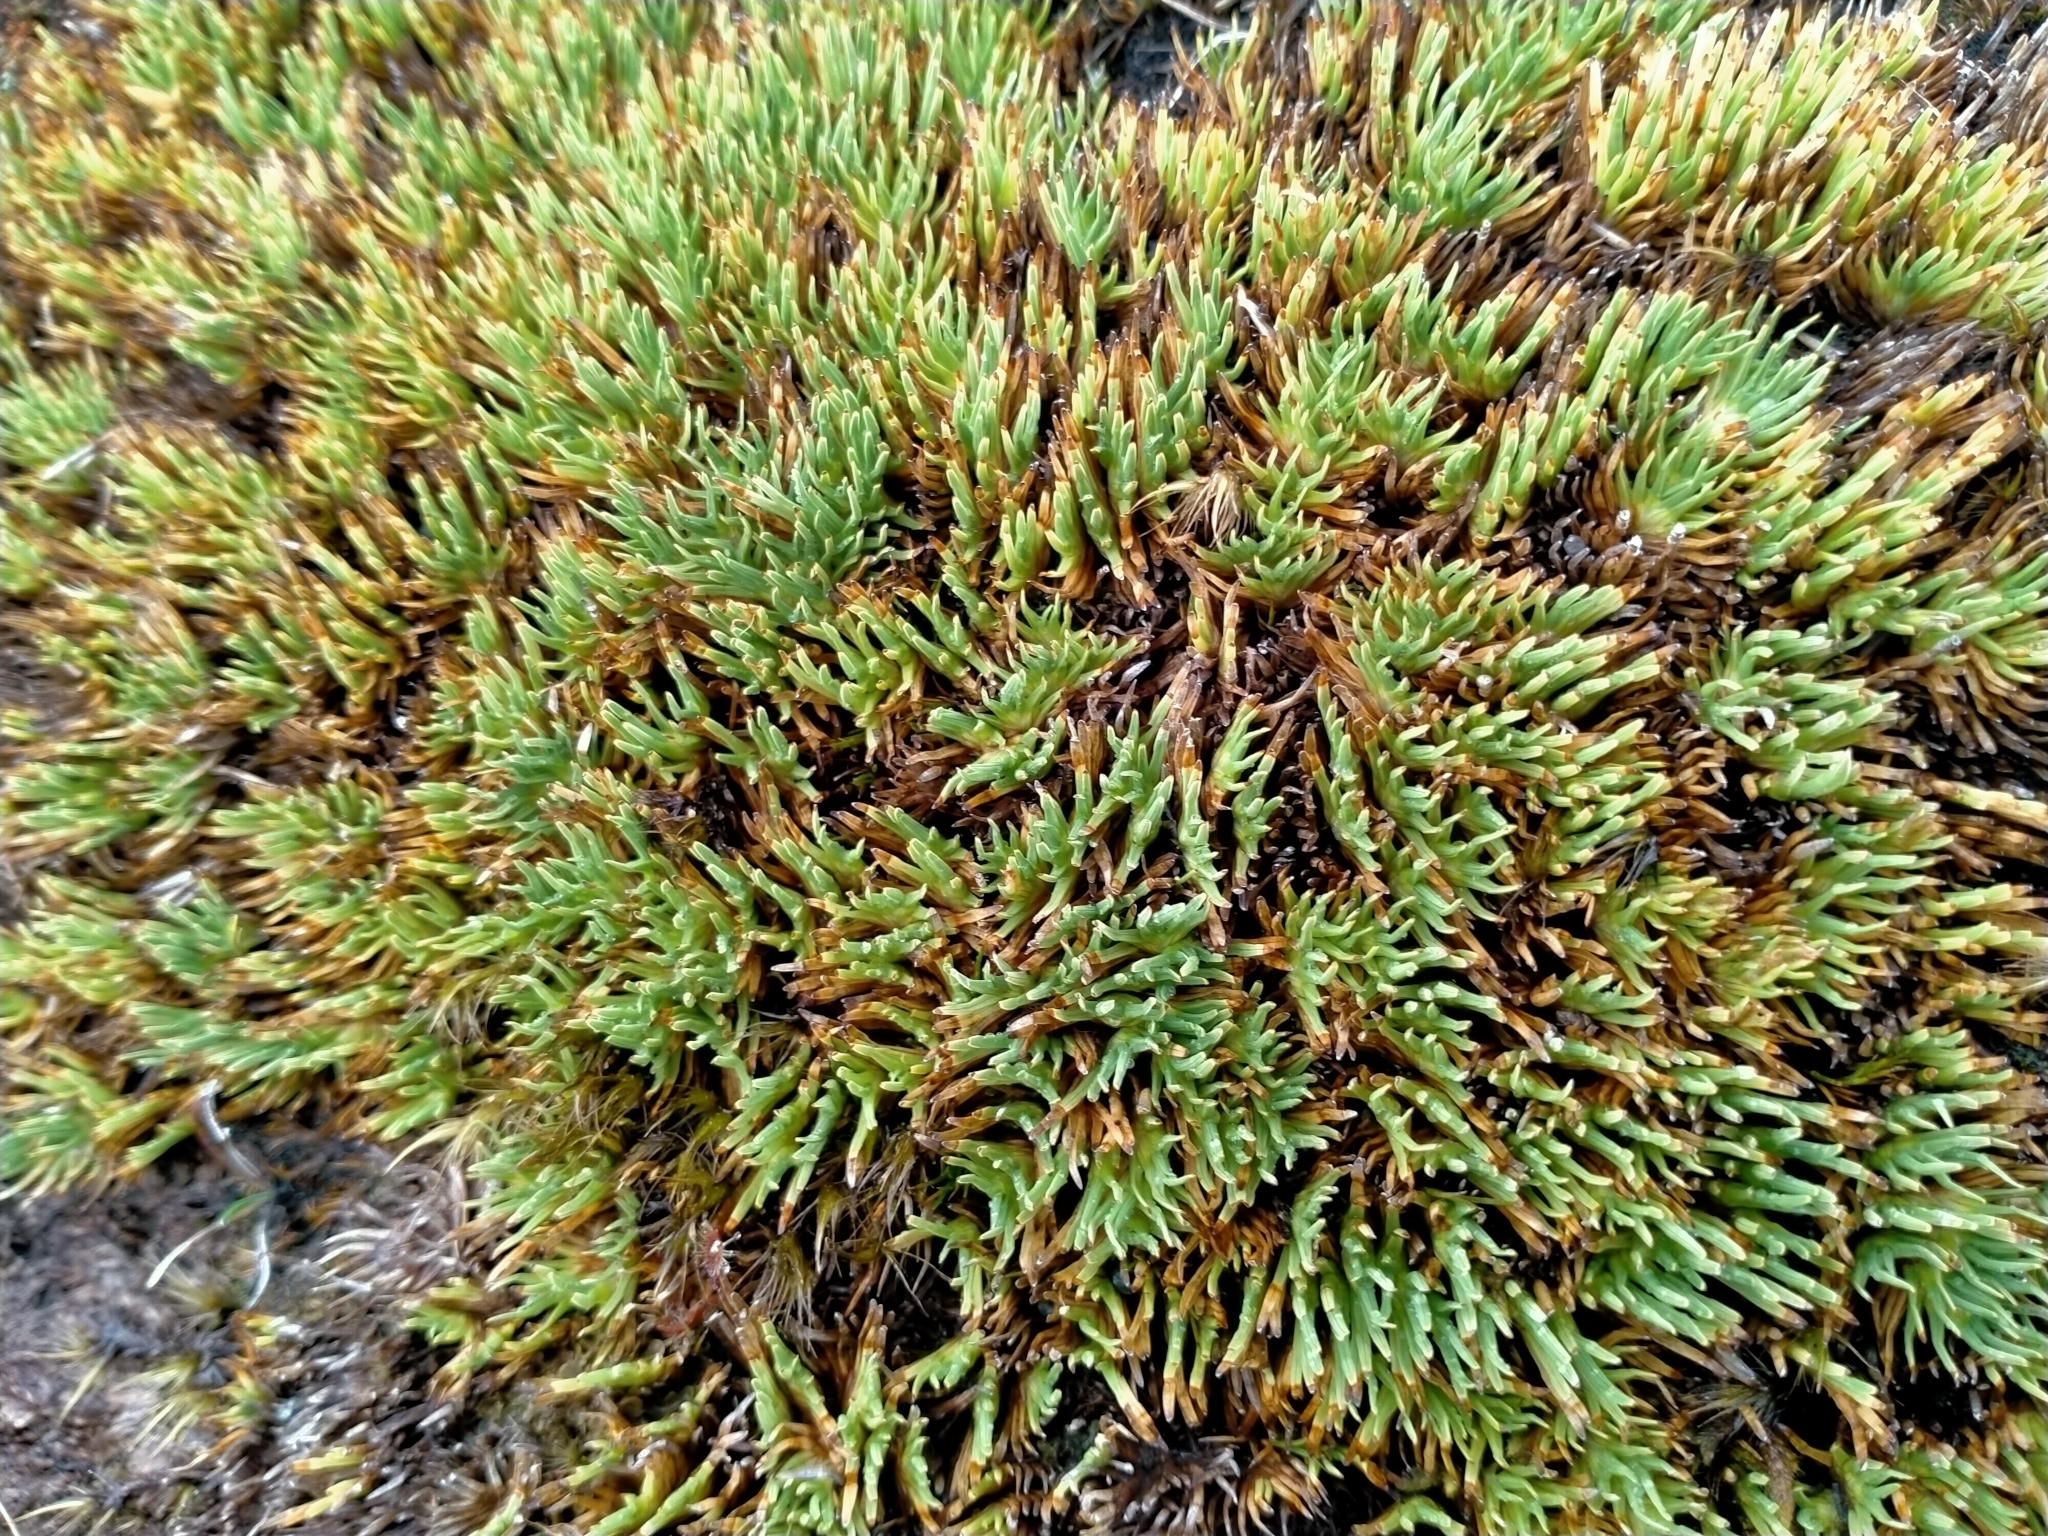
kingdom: Plantae
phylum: Tracheophyta
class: Liliopsida
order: Poales
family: Cyperaceae
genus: Oreobolus
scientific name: Oreobolus pectinatus
